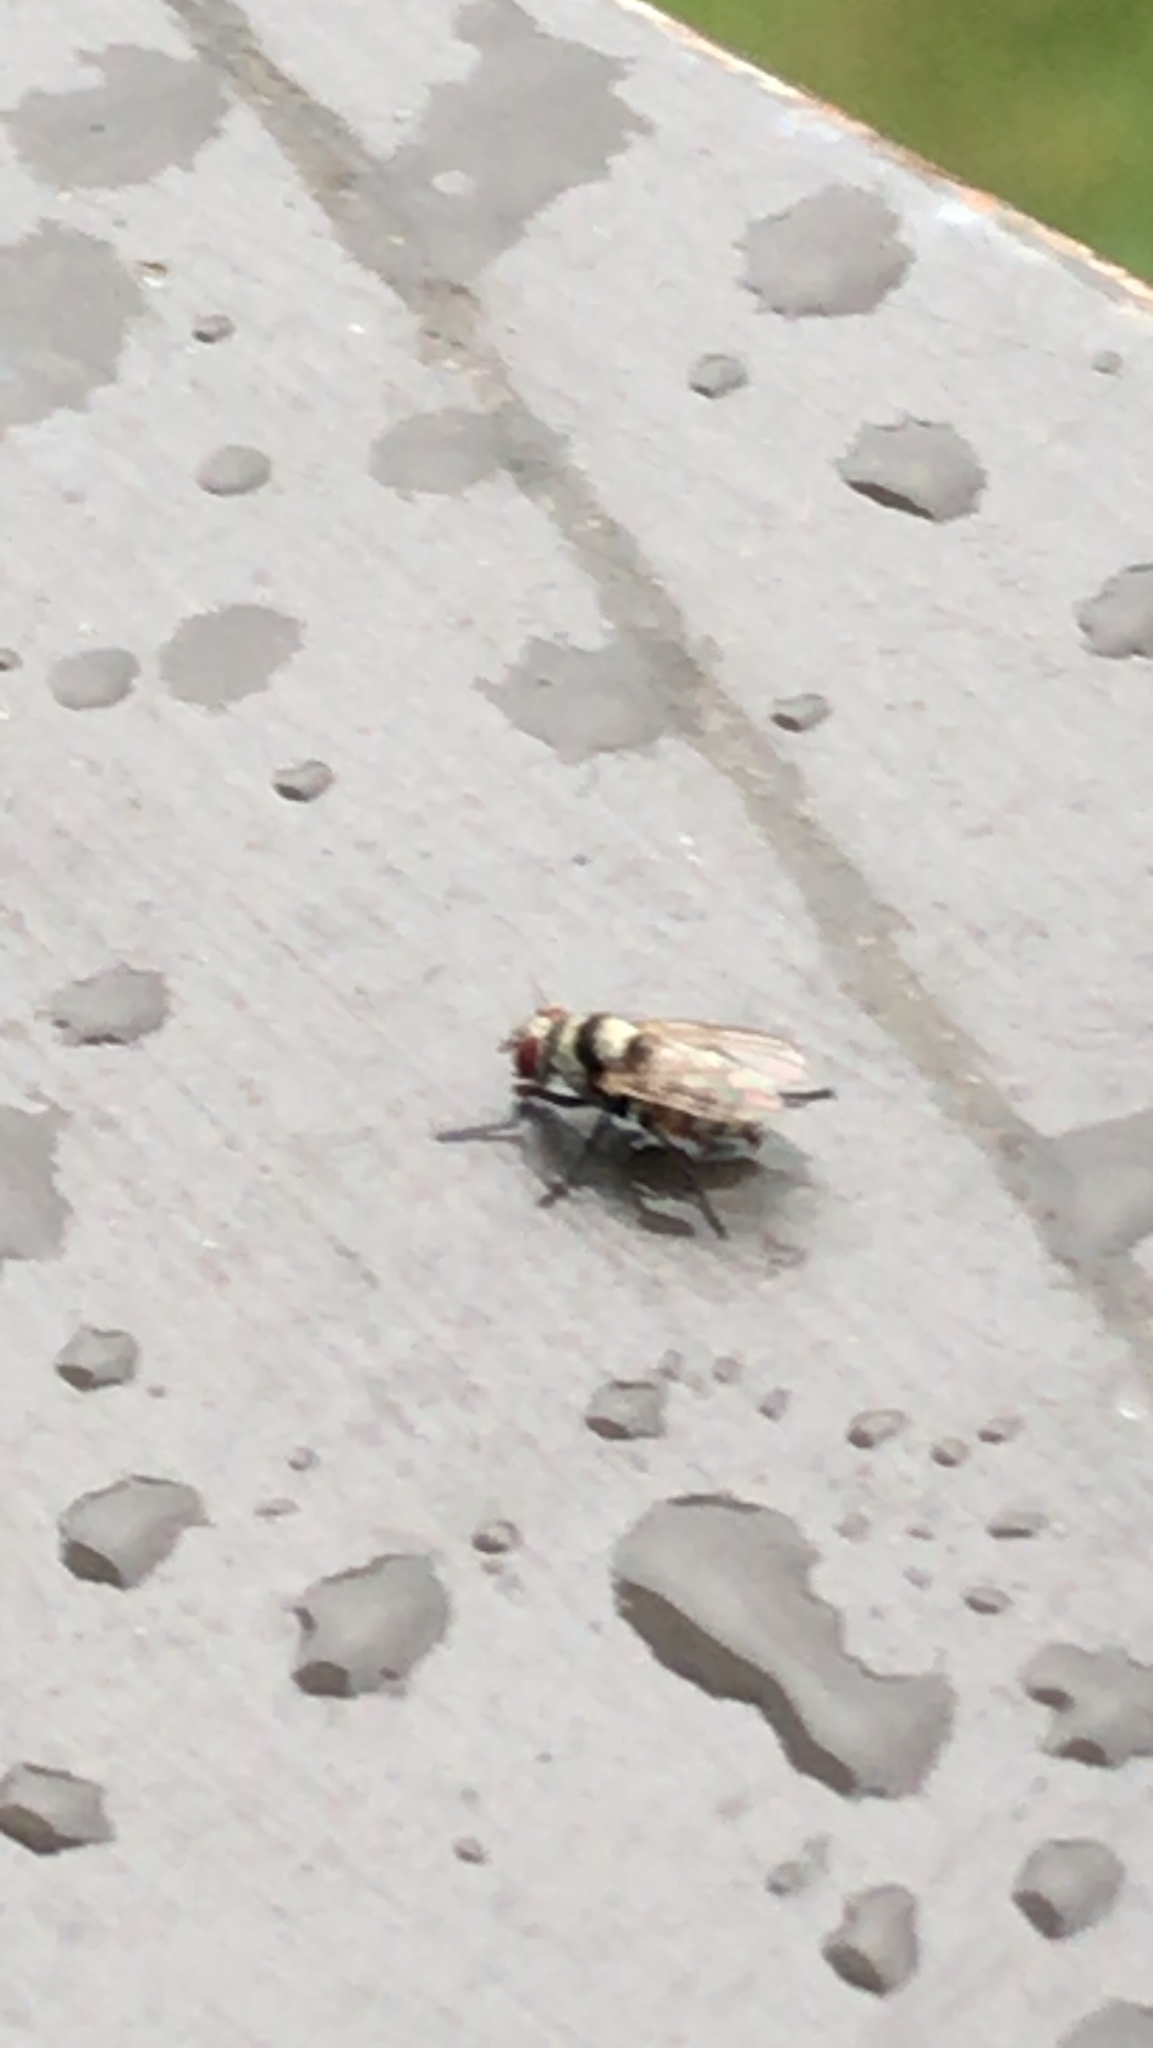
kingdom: Animalia
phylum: Arthropoda
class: Insecta
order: Diptera
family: Anthomyiidae
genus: Anthomyia
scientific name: Anthomyia illocata
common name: Fly
